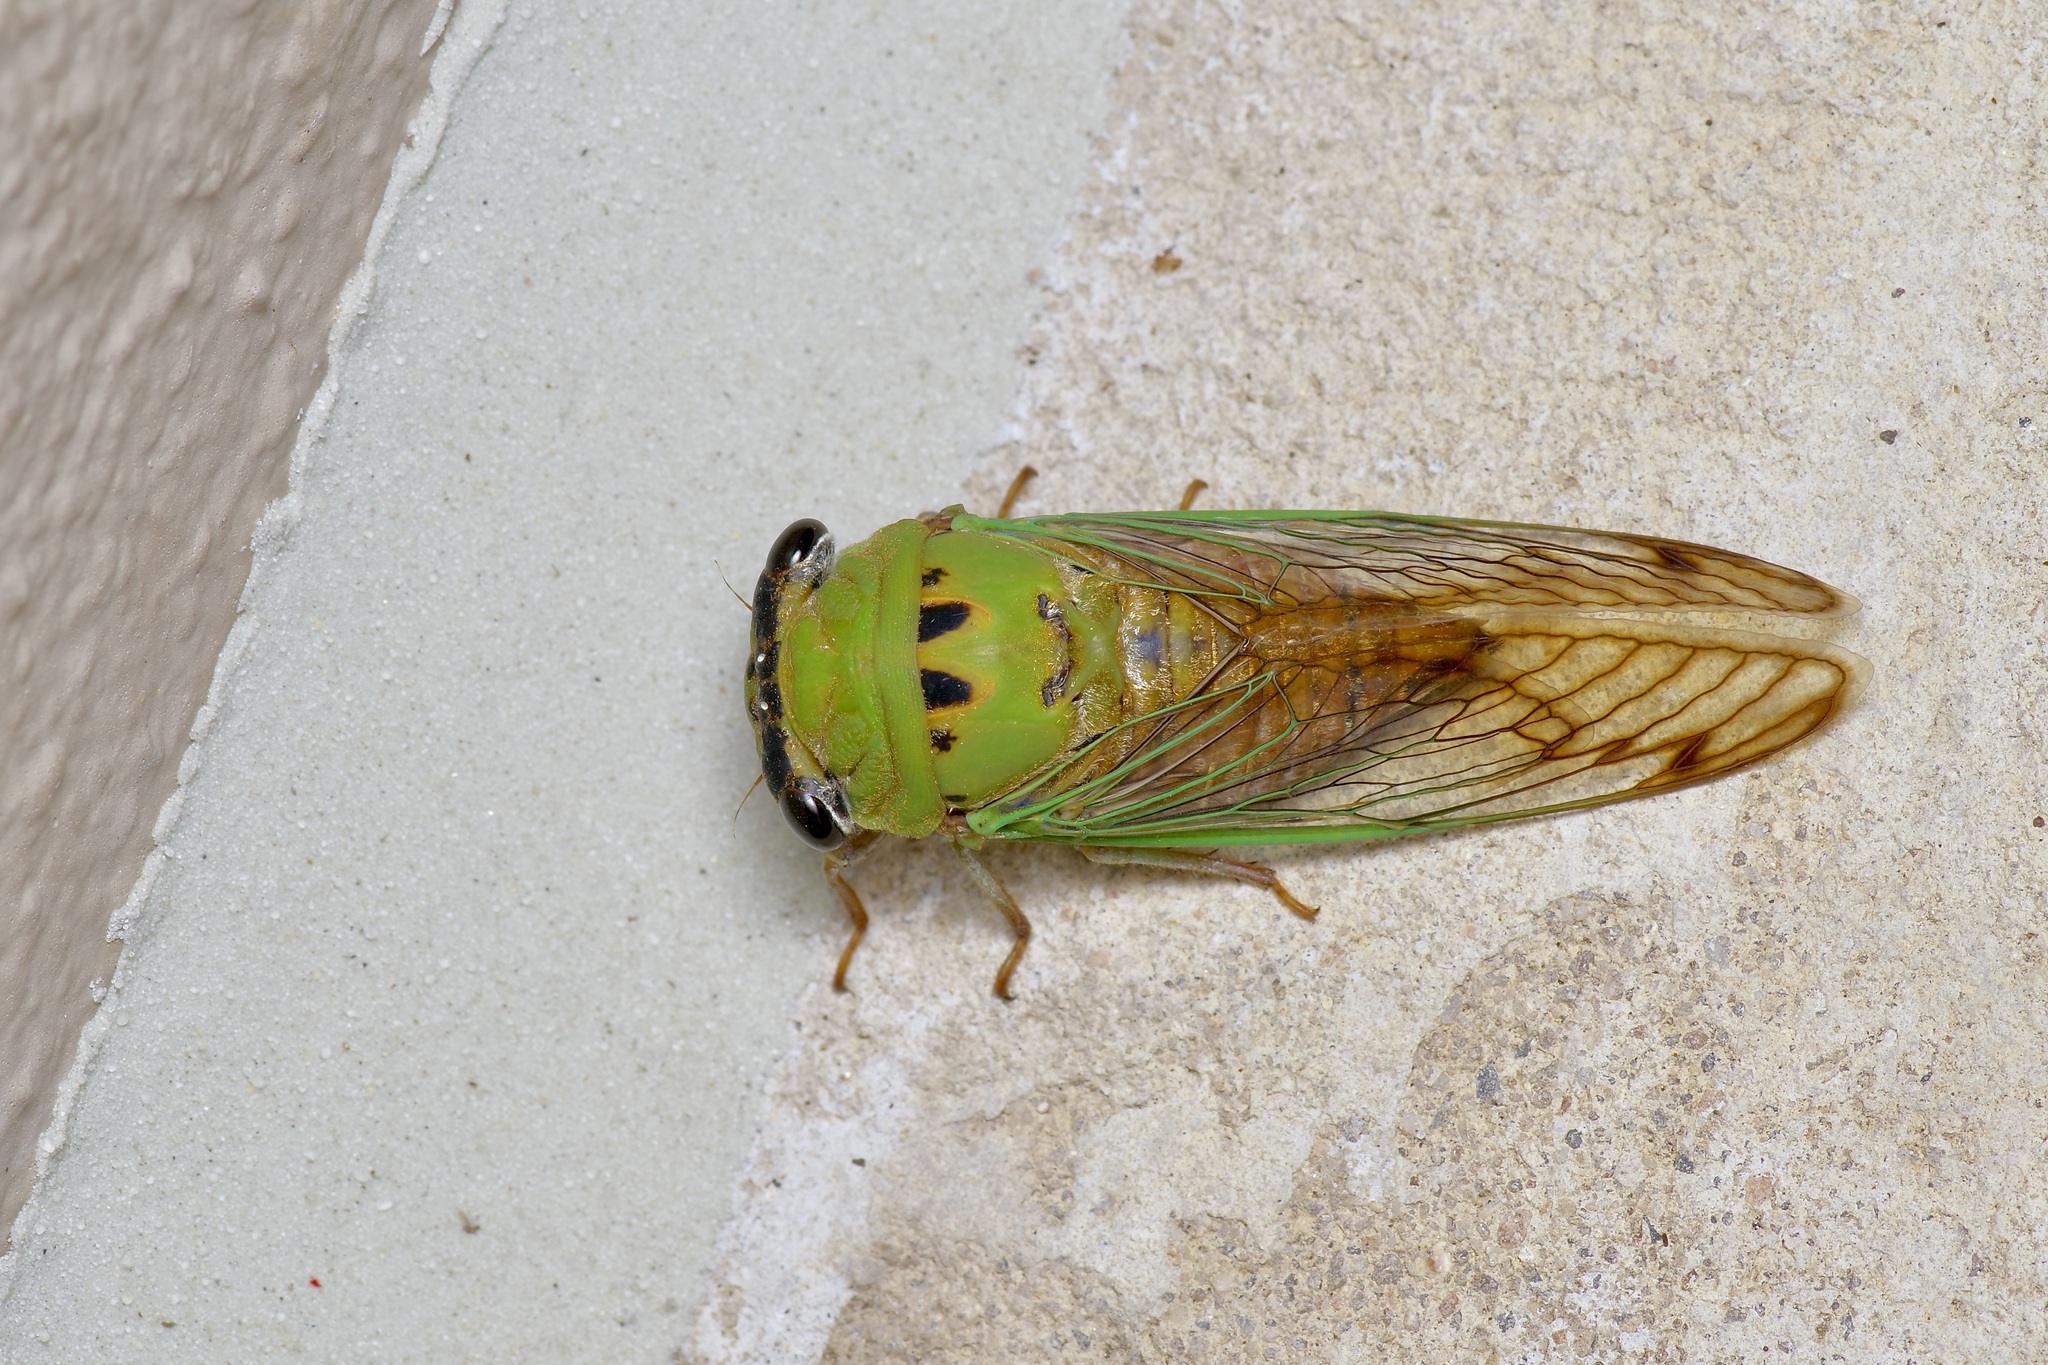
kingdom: Animalia
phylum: Arthropoda
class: Insecta
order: Hemiptera
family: Cicadidae
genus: Neotibicen
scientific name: Neotibicen superbus
